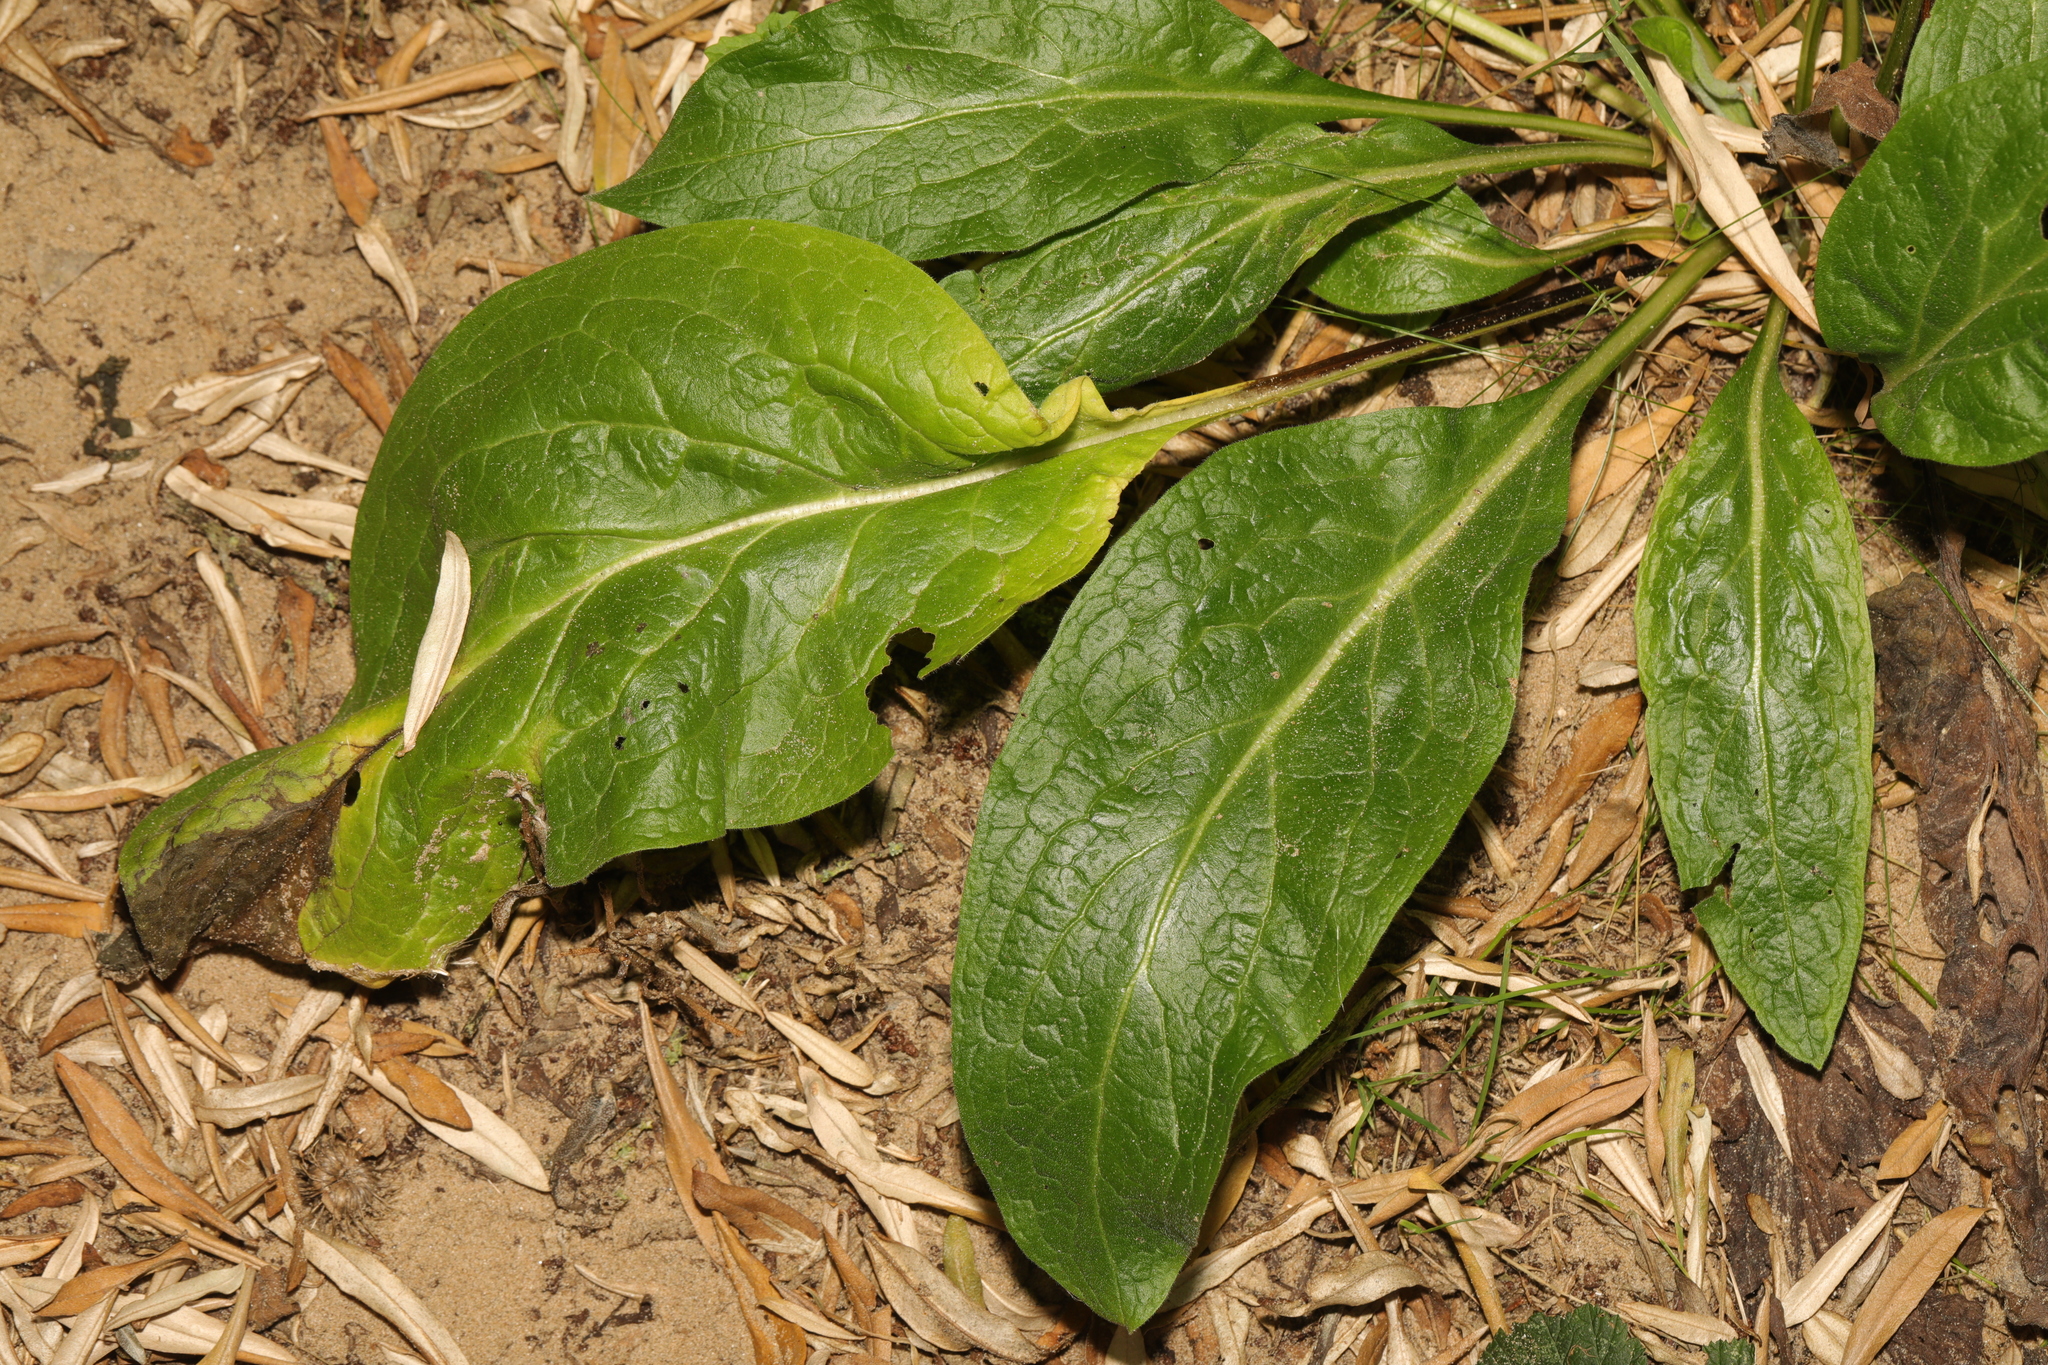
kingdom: Plantae
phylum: Tracheophyta
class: Magnoliopsida
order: Brassicales
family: Brassicaceae
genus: Hesperis
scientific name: Hesperis matronalis
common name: Dame's-violet
